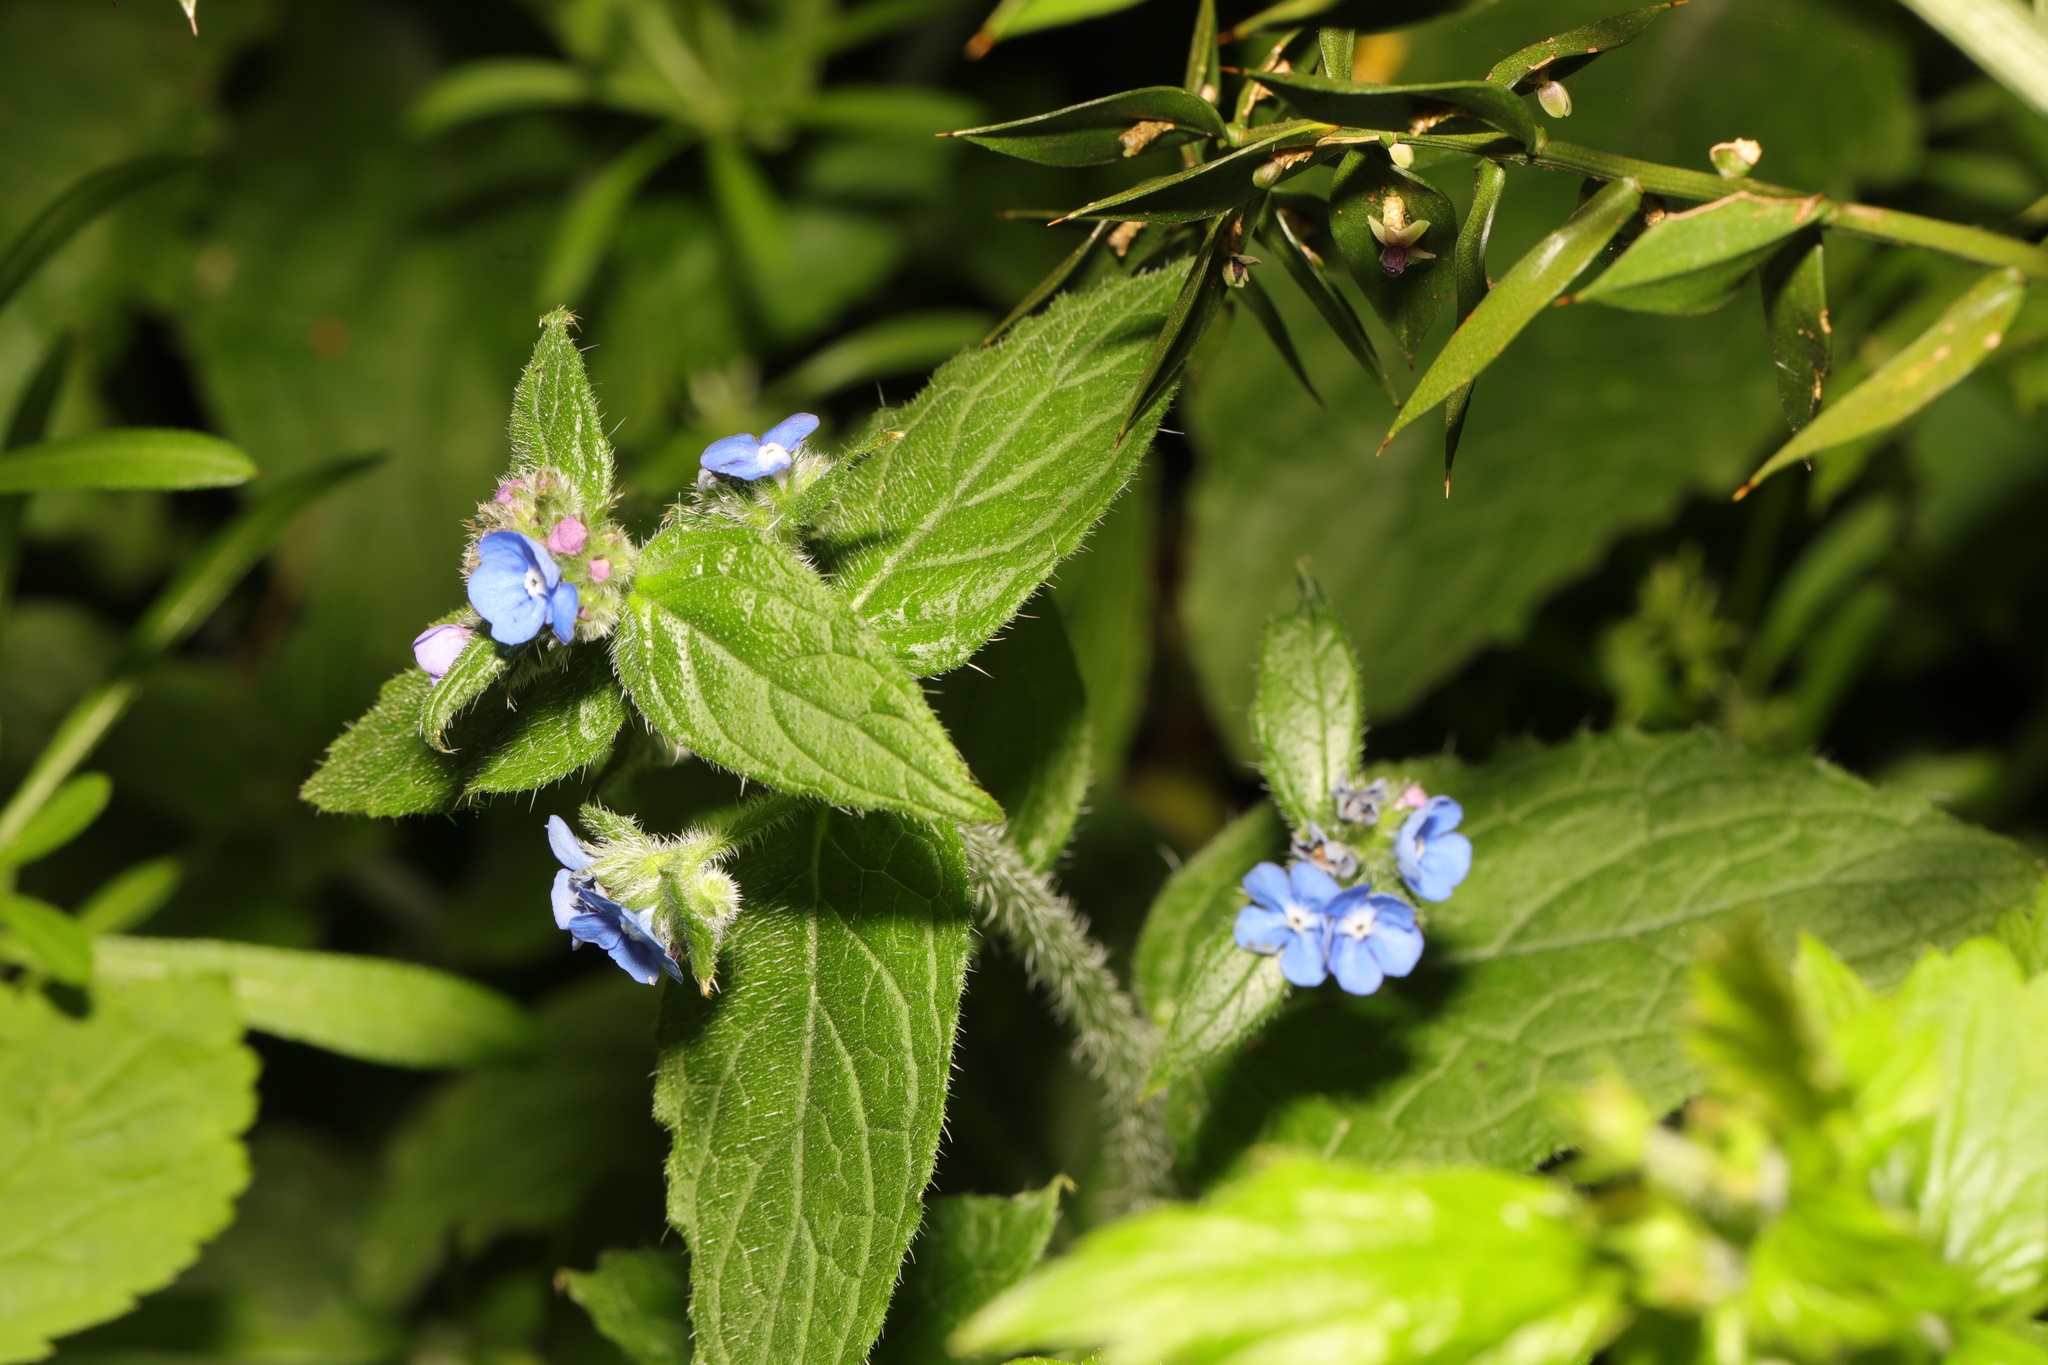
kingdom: Plantae
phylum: Tracheophyta
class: Magnoliopsida
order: Boraginales
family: Boraginaceae
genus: Pentaglottis
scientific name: Pentaglottis sempervirens
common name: Green alkanet
